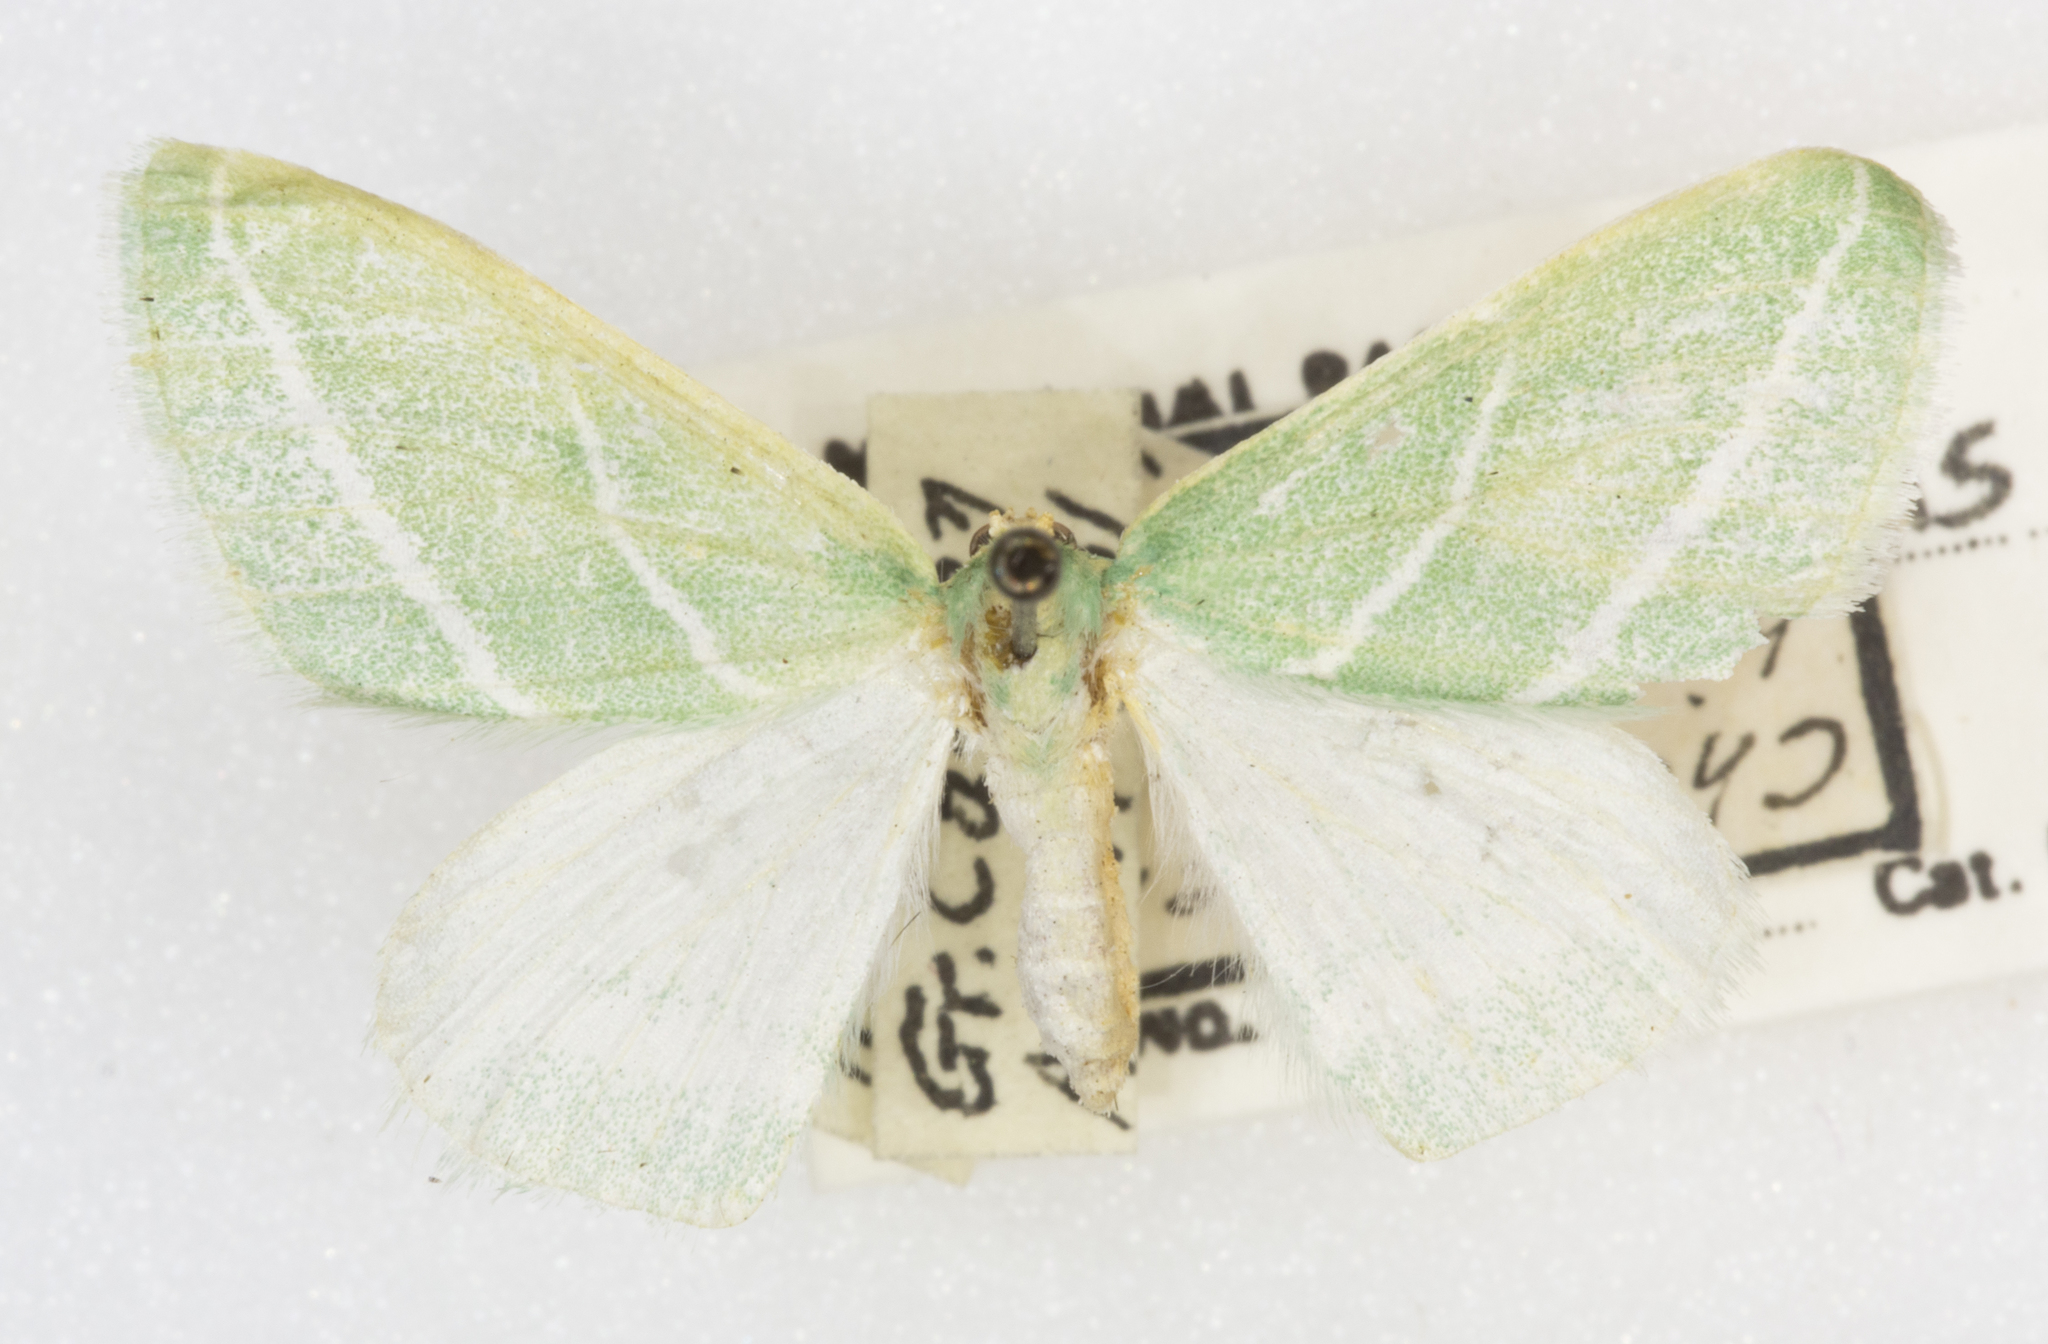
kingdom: Animalia
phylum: Arthropoda
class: Insecta
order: Lepidoptera
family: Geometridae
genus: Synchlora
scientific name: Synchlora bistriaria
